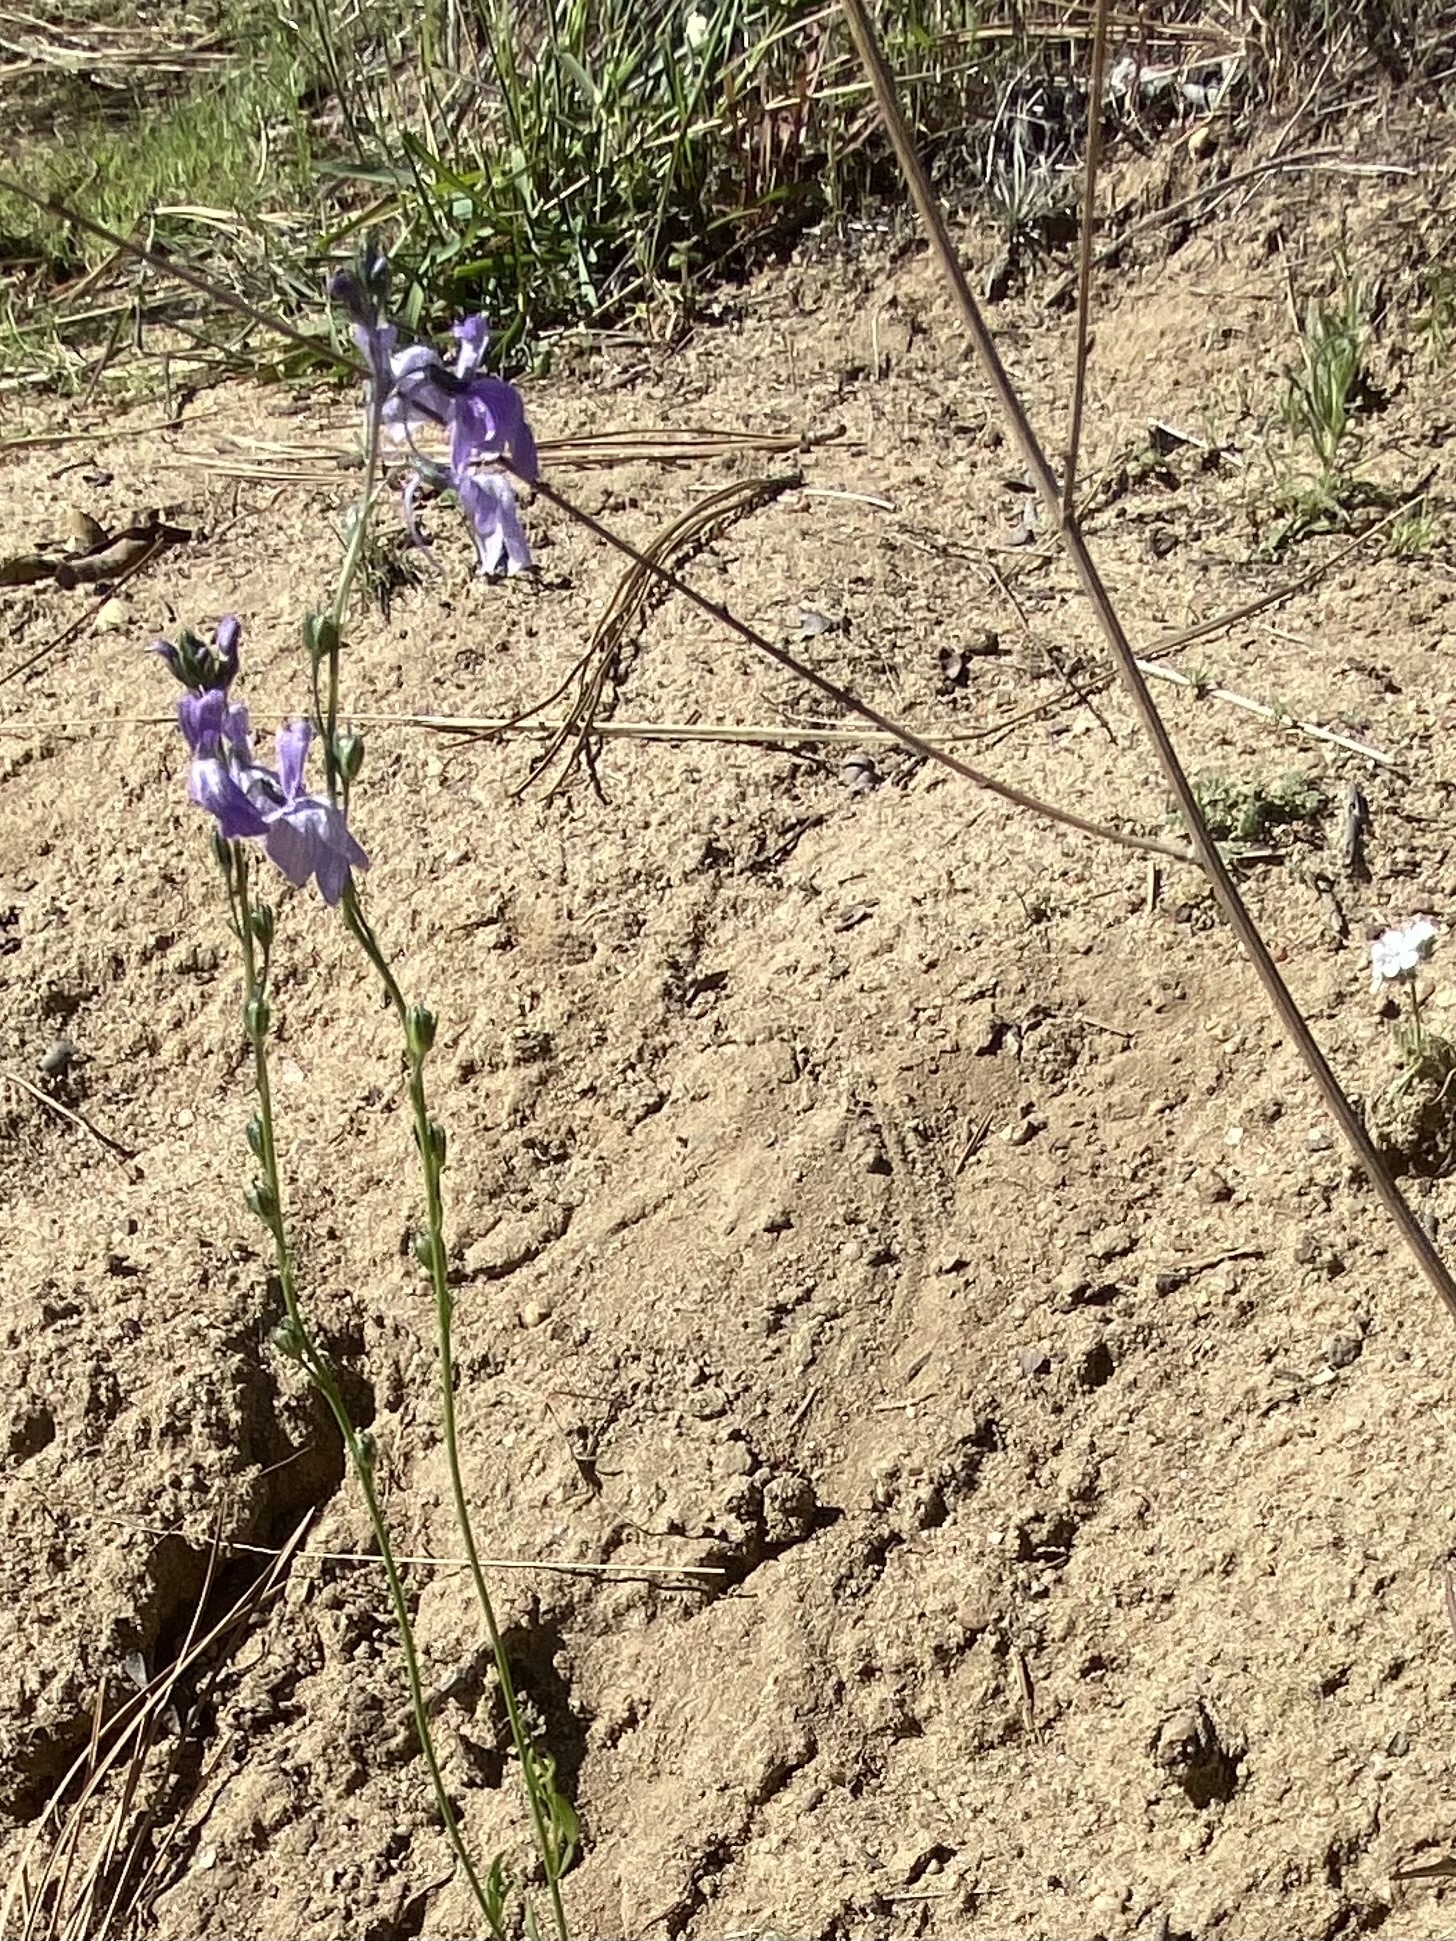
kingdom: Plantae
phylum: Tracheophyta
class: Magnoliopsida
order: Lamiales
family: Plantaginaceae
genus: Nuttallanthus
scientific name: Nuttallanthus texanus
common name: Texas toadflax
